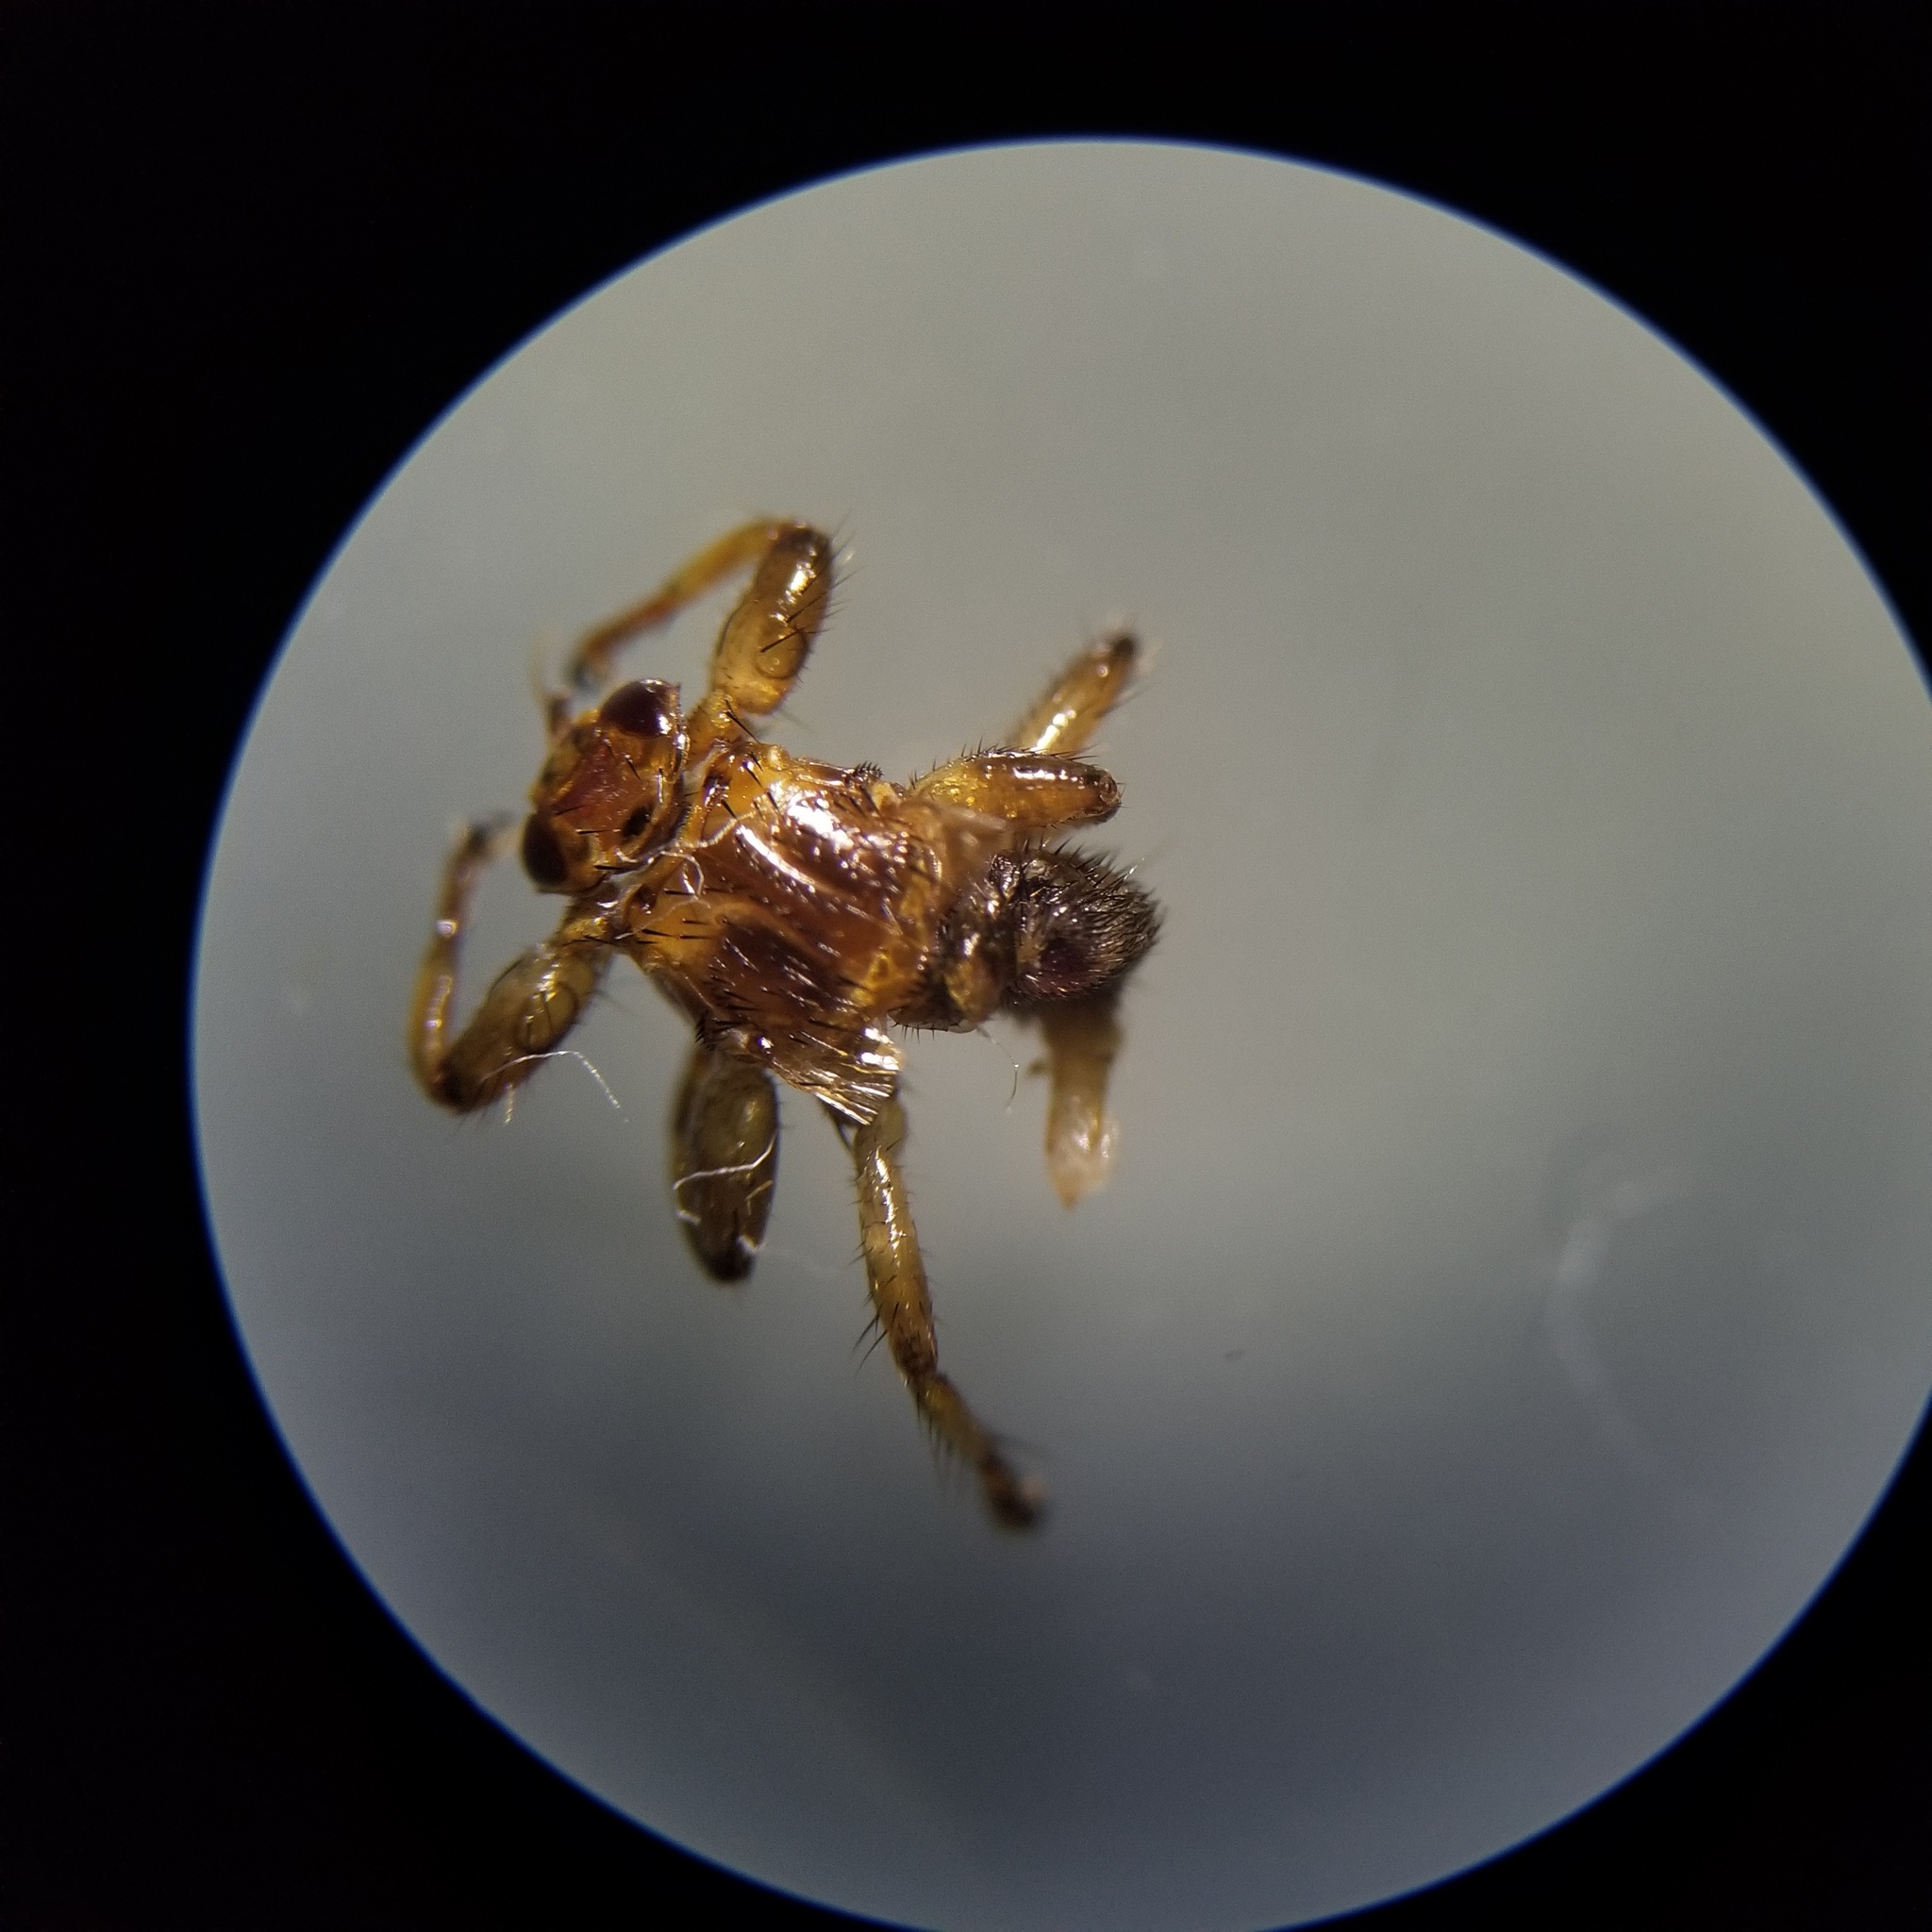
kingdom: Animalia
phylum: Arthropoda
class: Insecta
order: Diptera
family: Hippoboscidae
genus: Lipoptena
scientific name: Lipoptena cervi
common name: Deer ked
